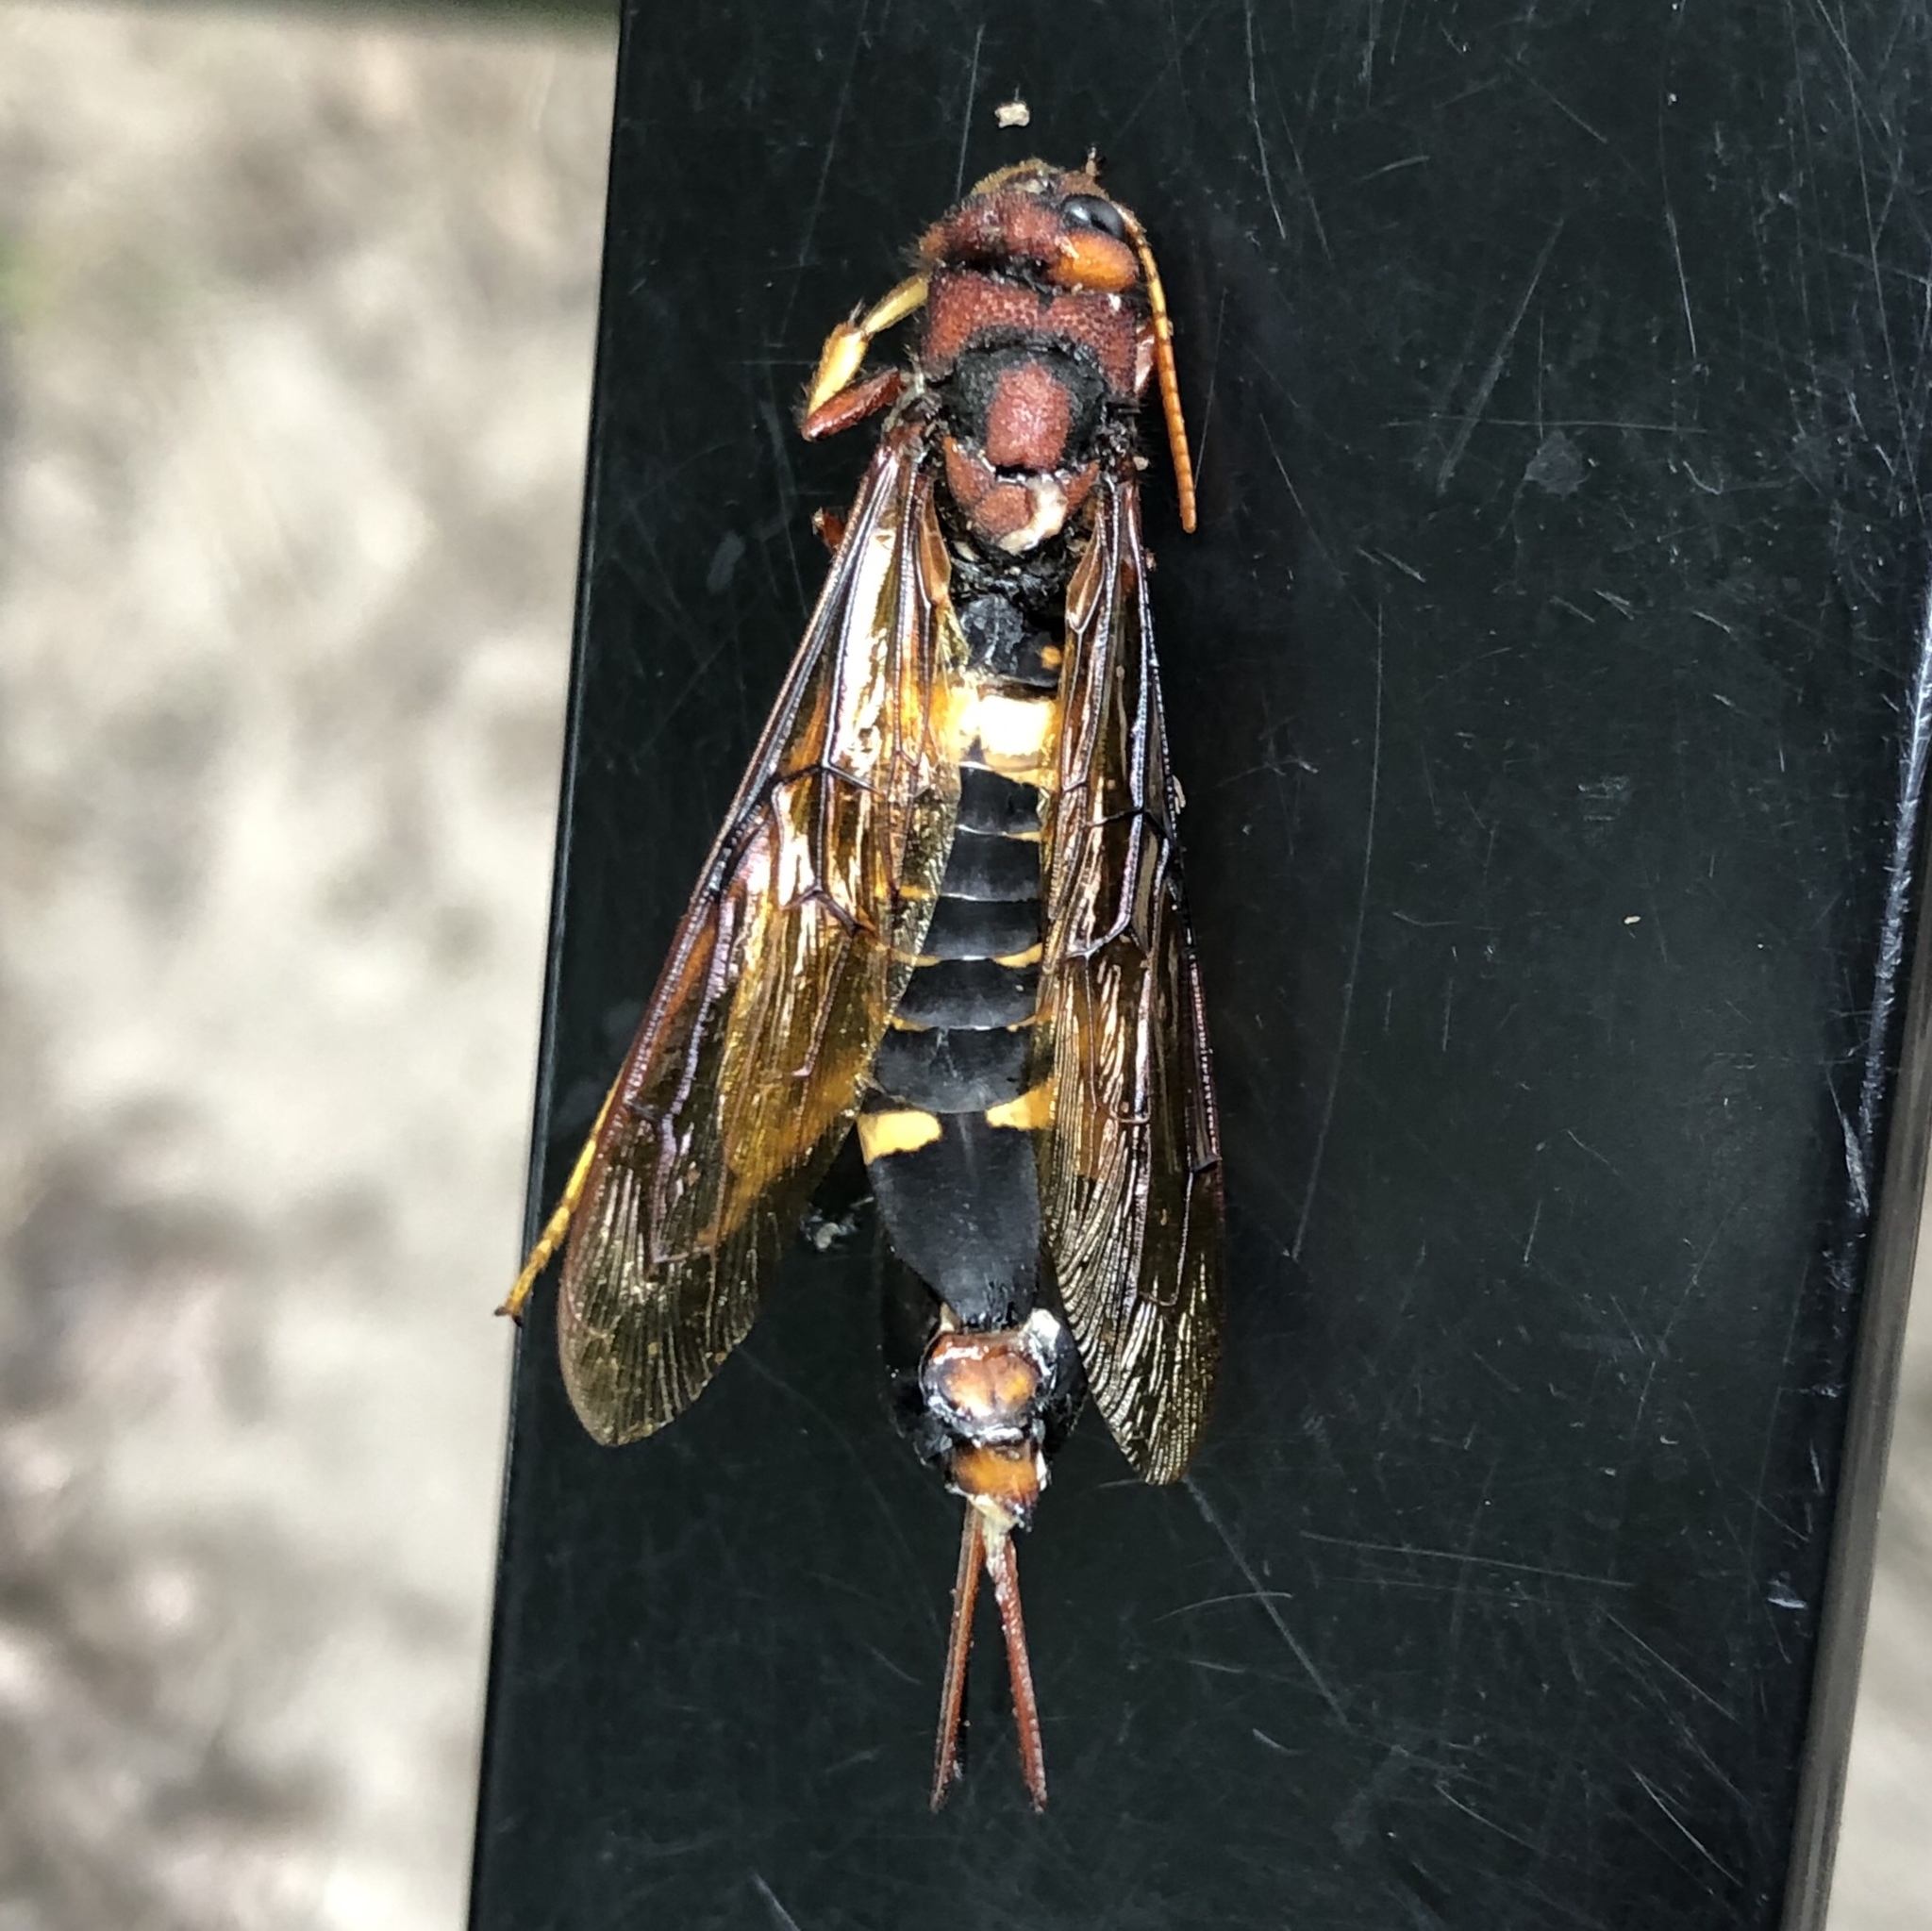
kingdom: Animalia
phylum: Arthropoda
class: Insecta
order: Hymenoptera
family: Siricidae
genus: Tremex
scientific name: Tremex columba
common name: Wasp
